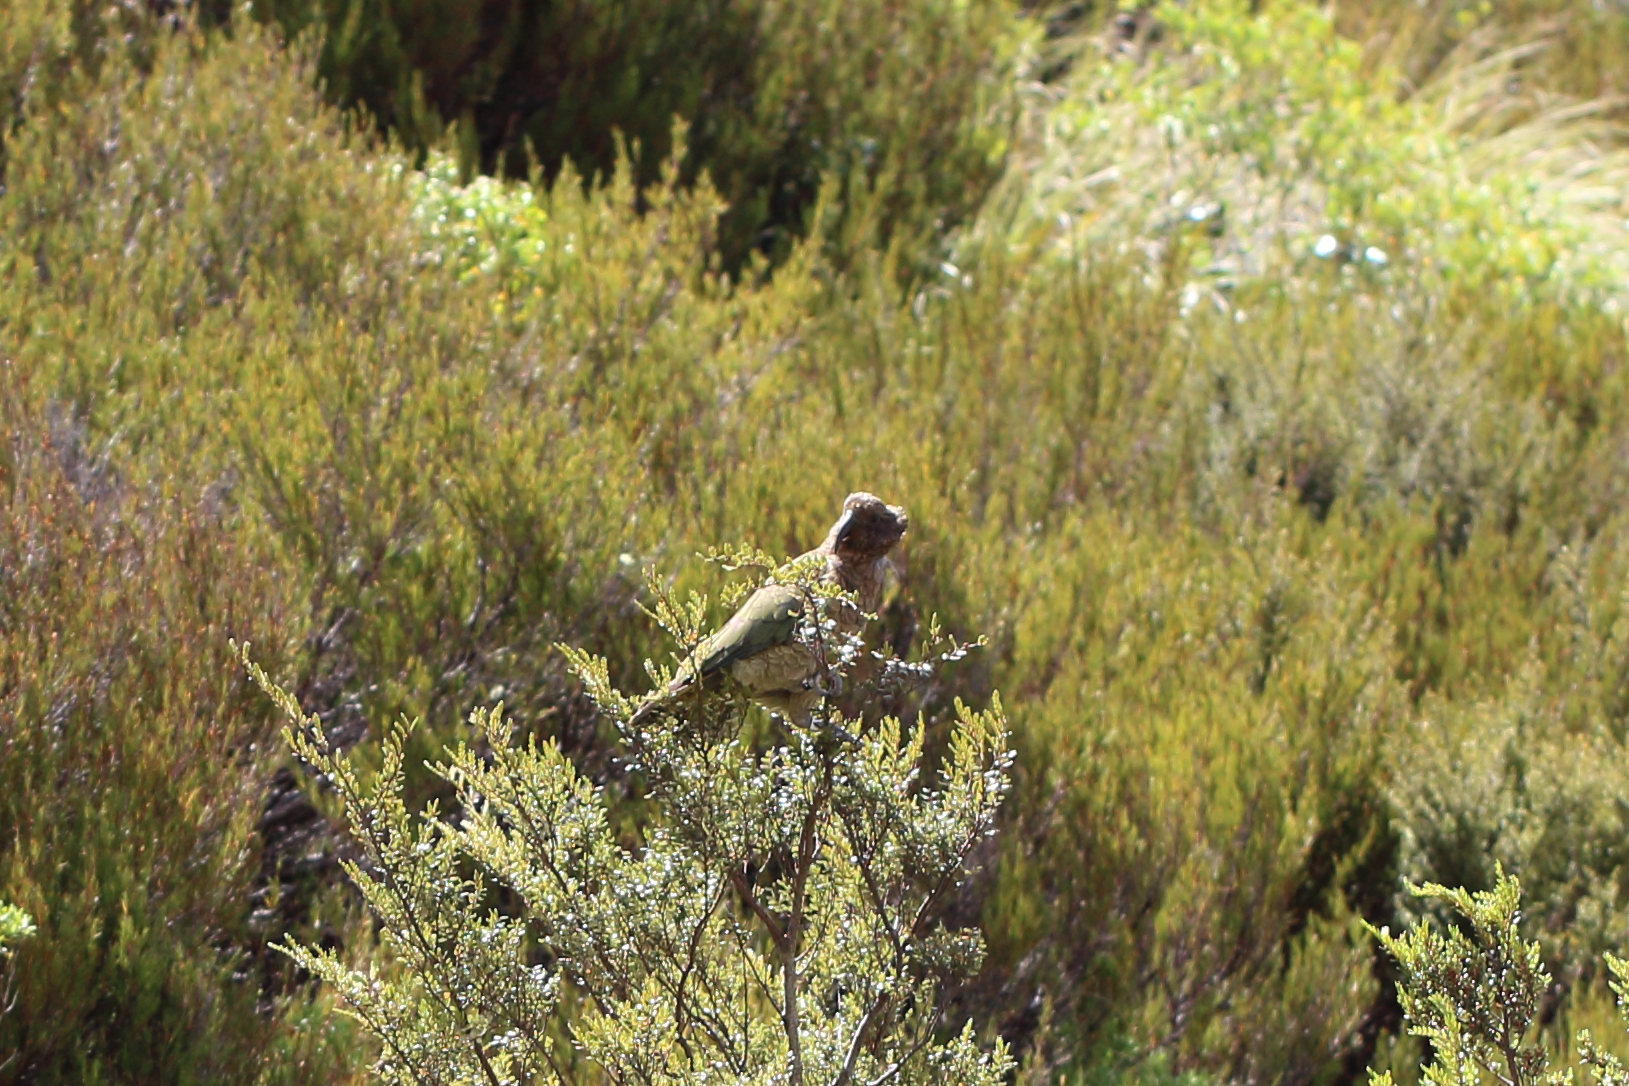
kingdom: Animalia
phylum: Chordata
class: Aves
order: Psittaciformes
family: Psittacidae
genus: Nestor
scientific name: Nestor notabilis
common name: Kea
